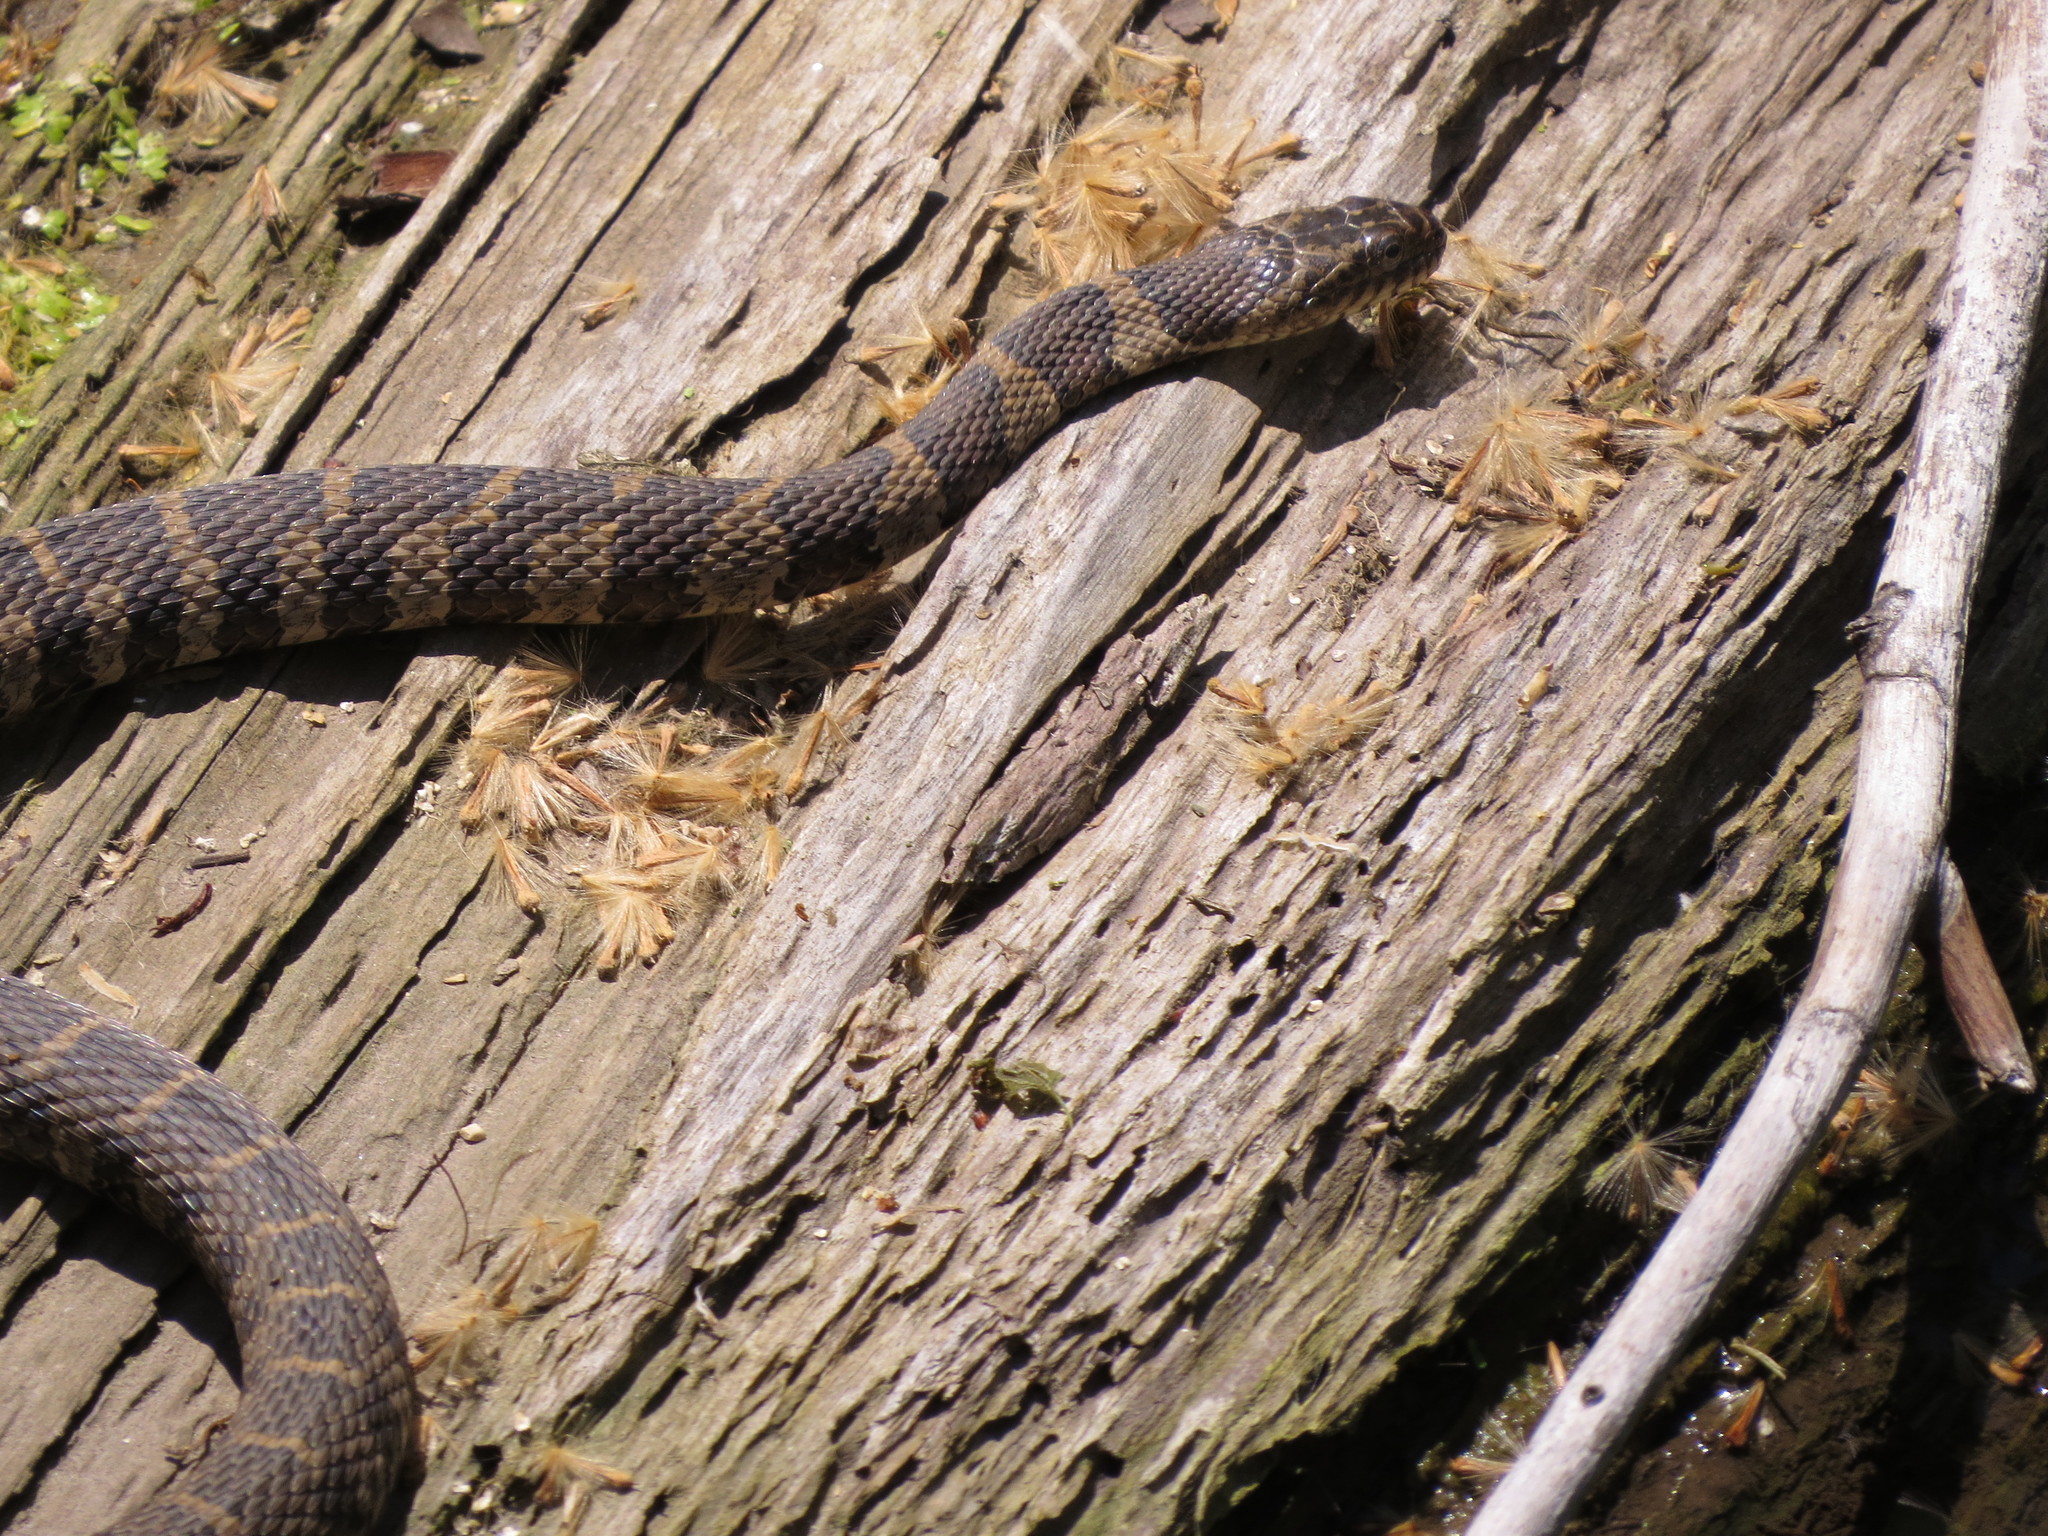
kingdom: Animalia
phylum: Chordata
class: Squamata
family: Colubridae
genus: Nerodia
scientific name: Nerodia sipedon
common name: Northern water snake
